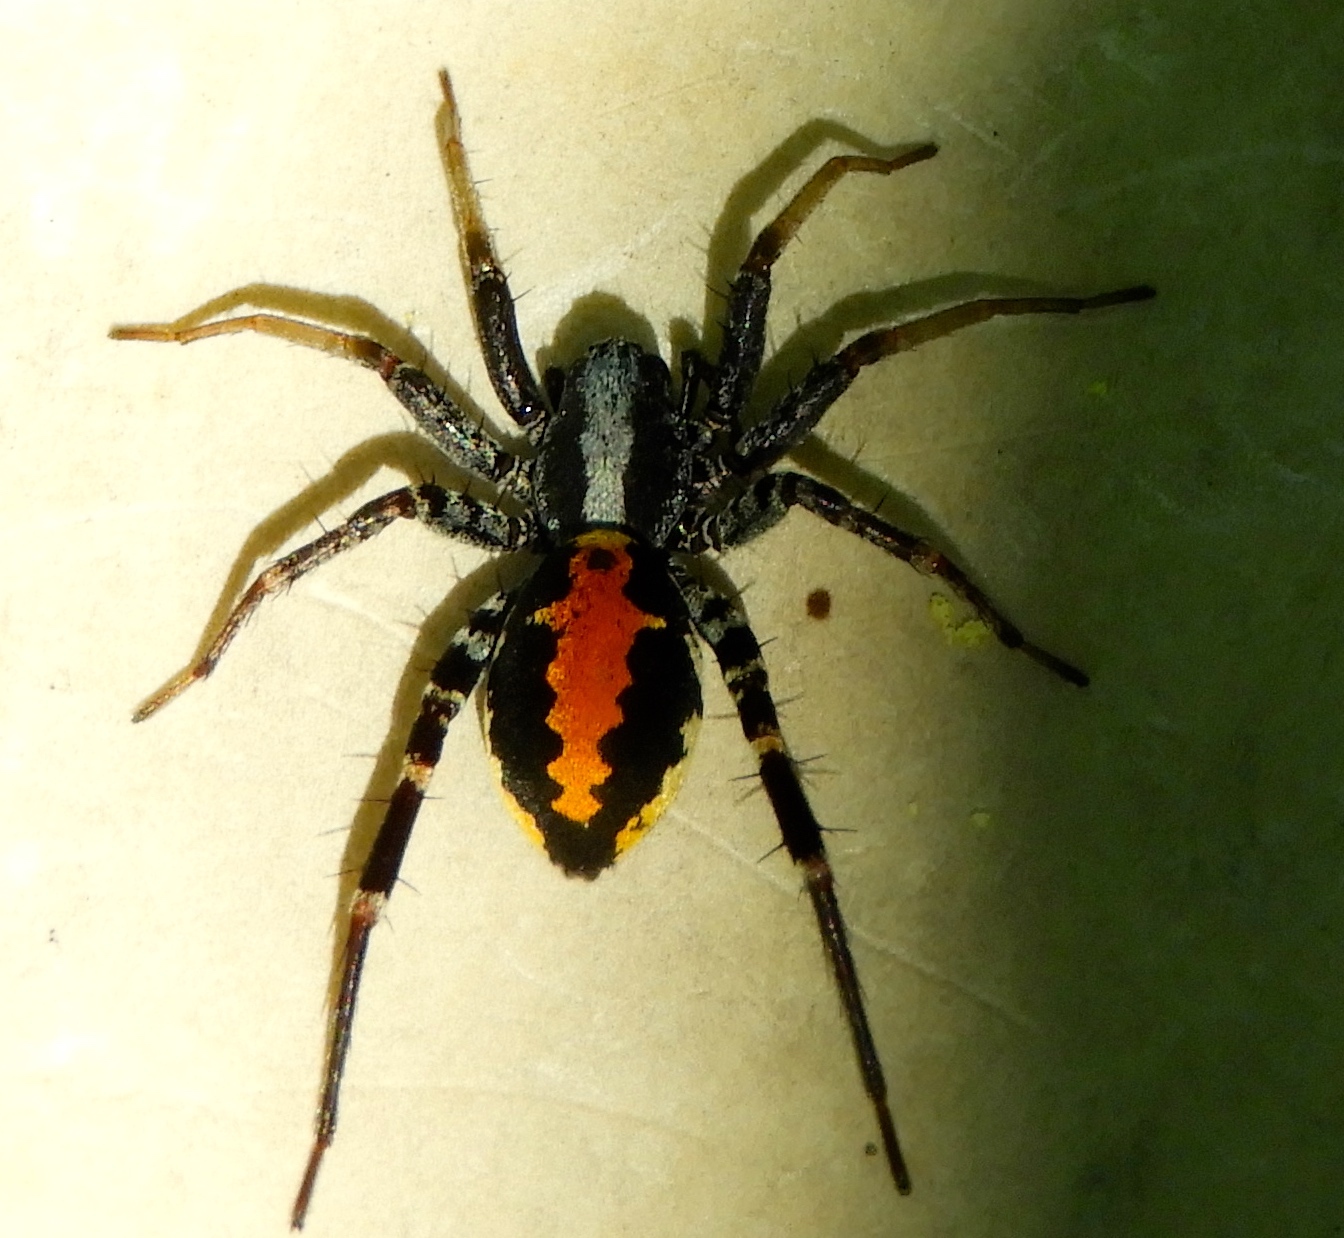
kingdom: Animalia
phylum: Arthropoda
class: Arachnida
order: Araneae
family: Corinnidae
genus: Castianeira
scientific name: Castianeira dorsata
